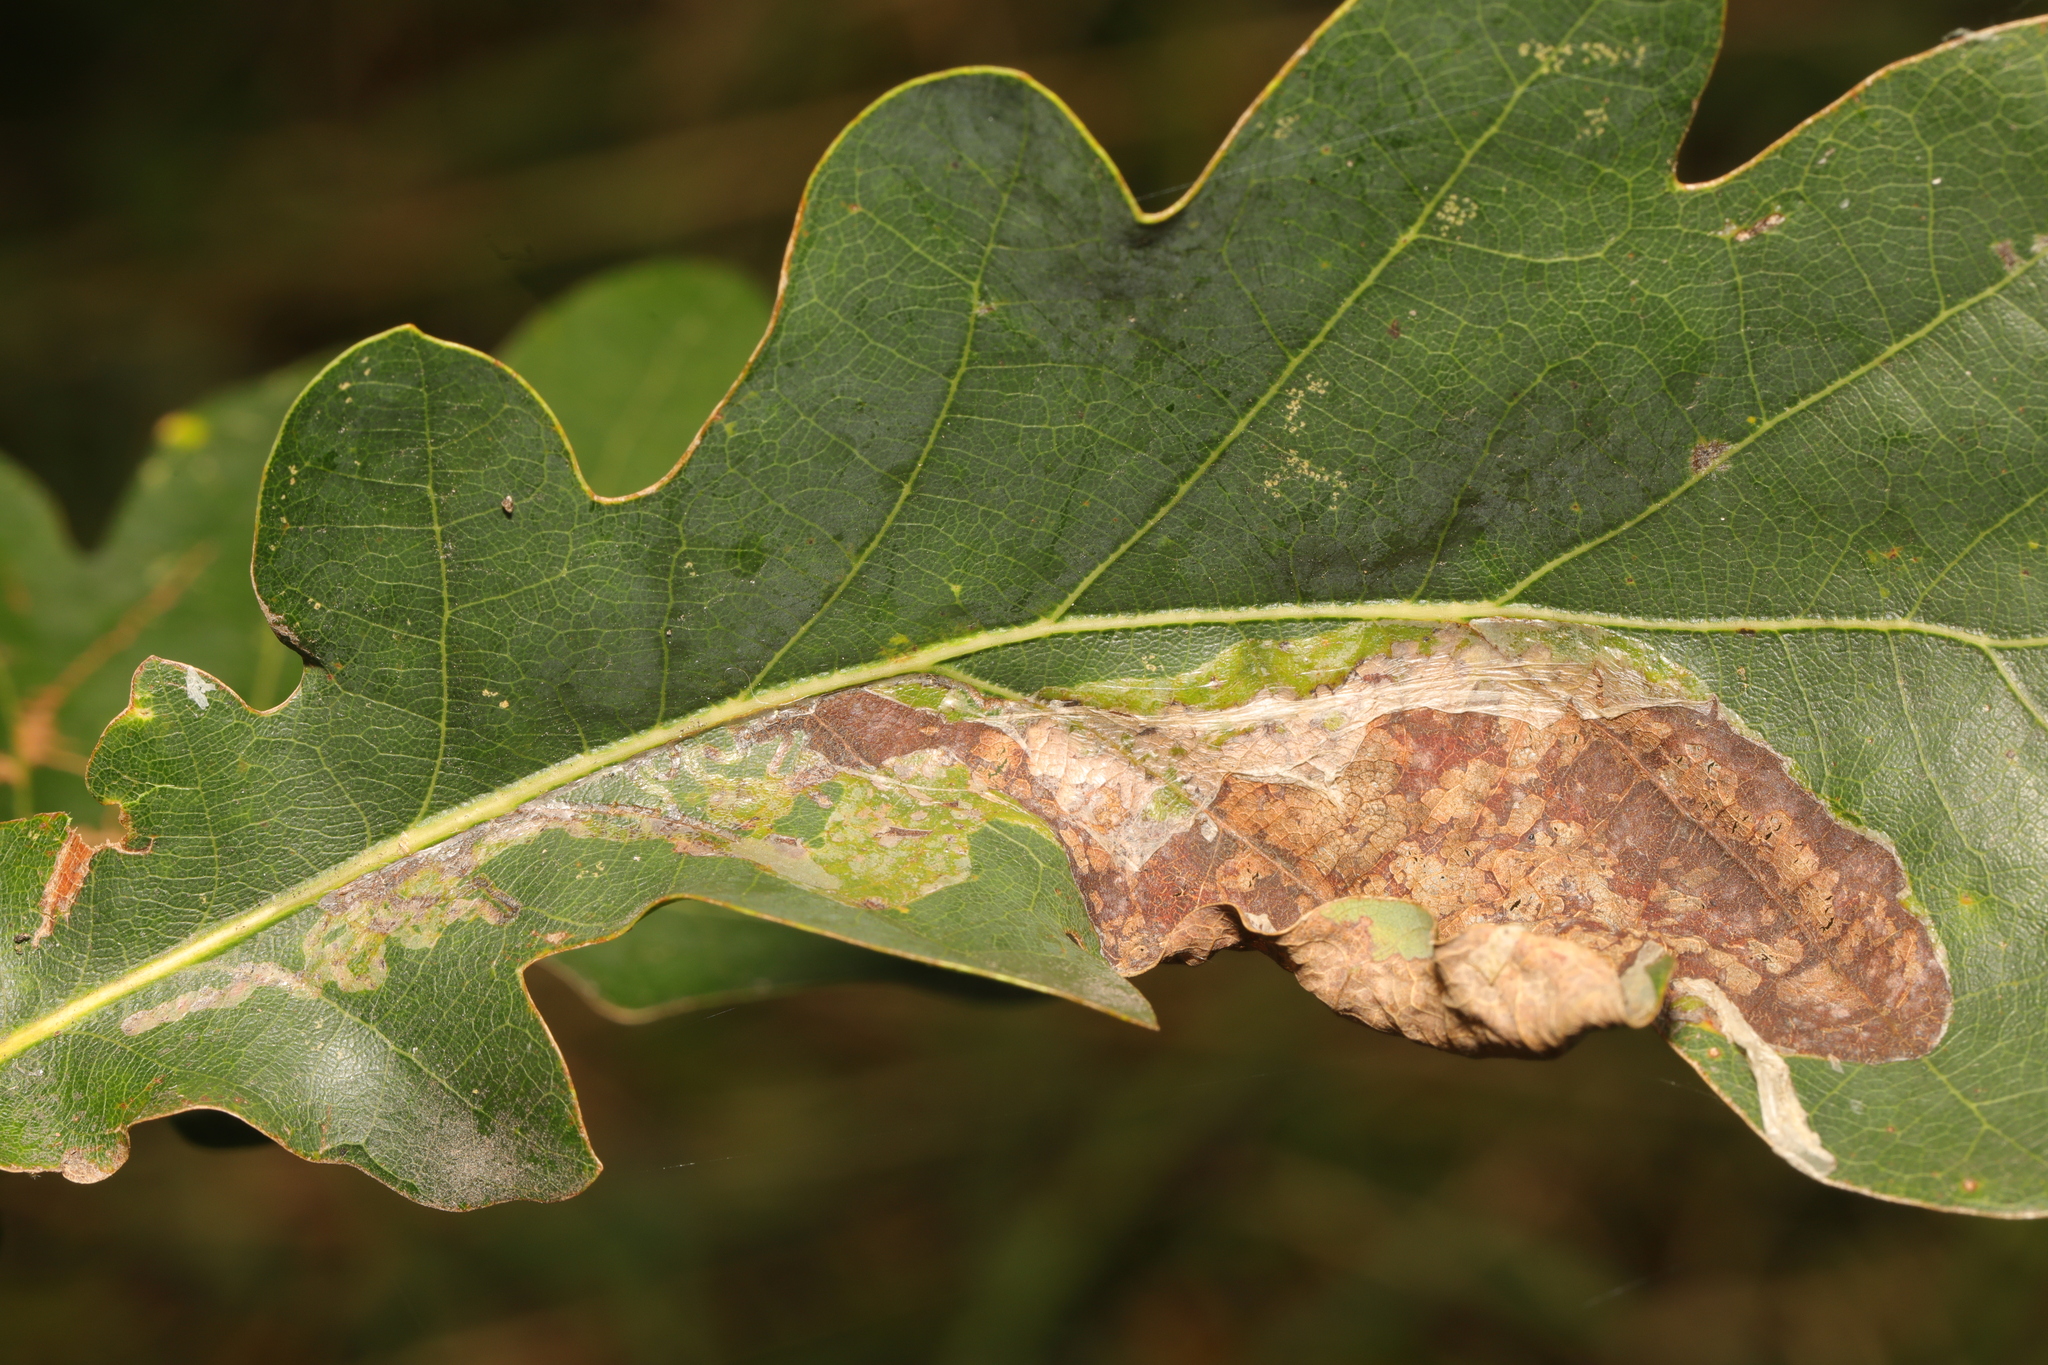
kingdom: Animalia
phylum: Arthropoda
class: Insecta
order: Lepidoptera
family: Gracillariidae
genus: Acrocercops
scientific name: Acrocercops brongniardella
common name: Brown oak slender
